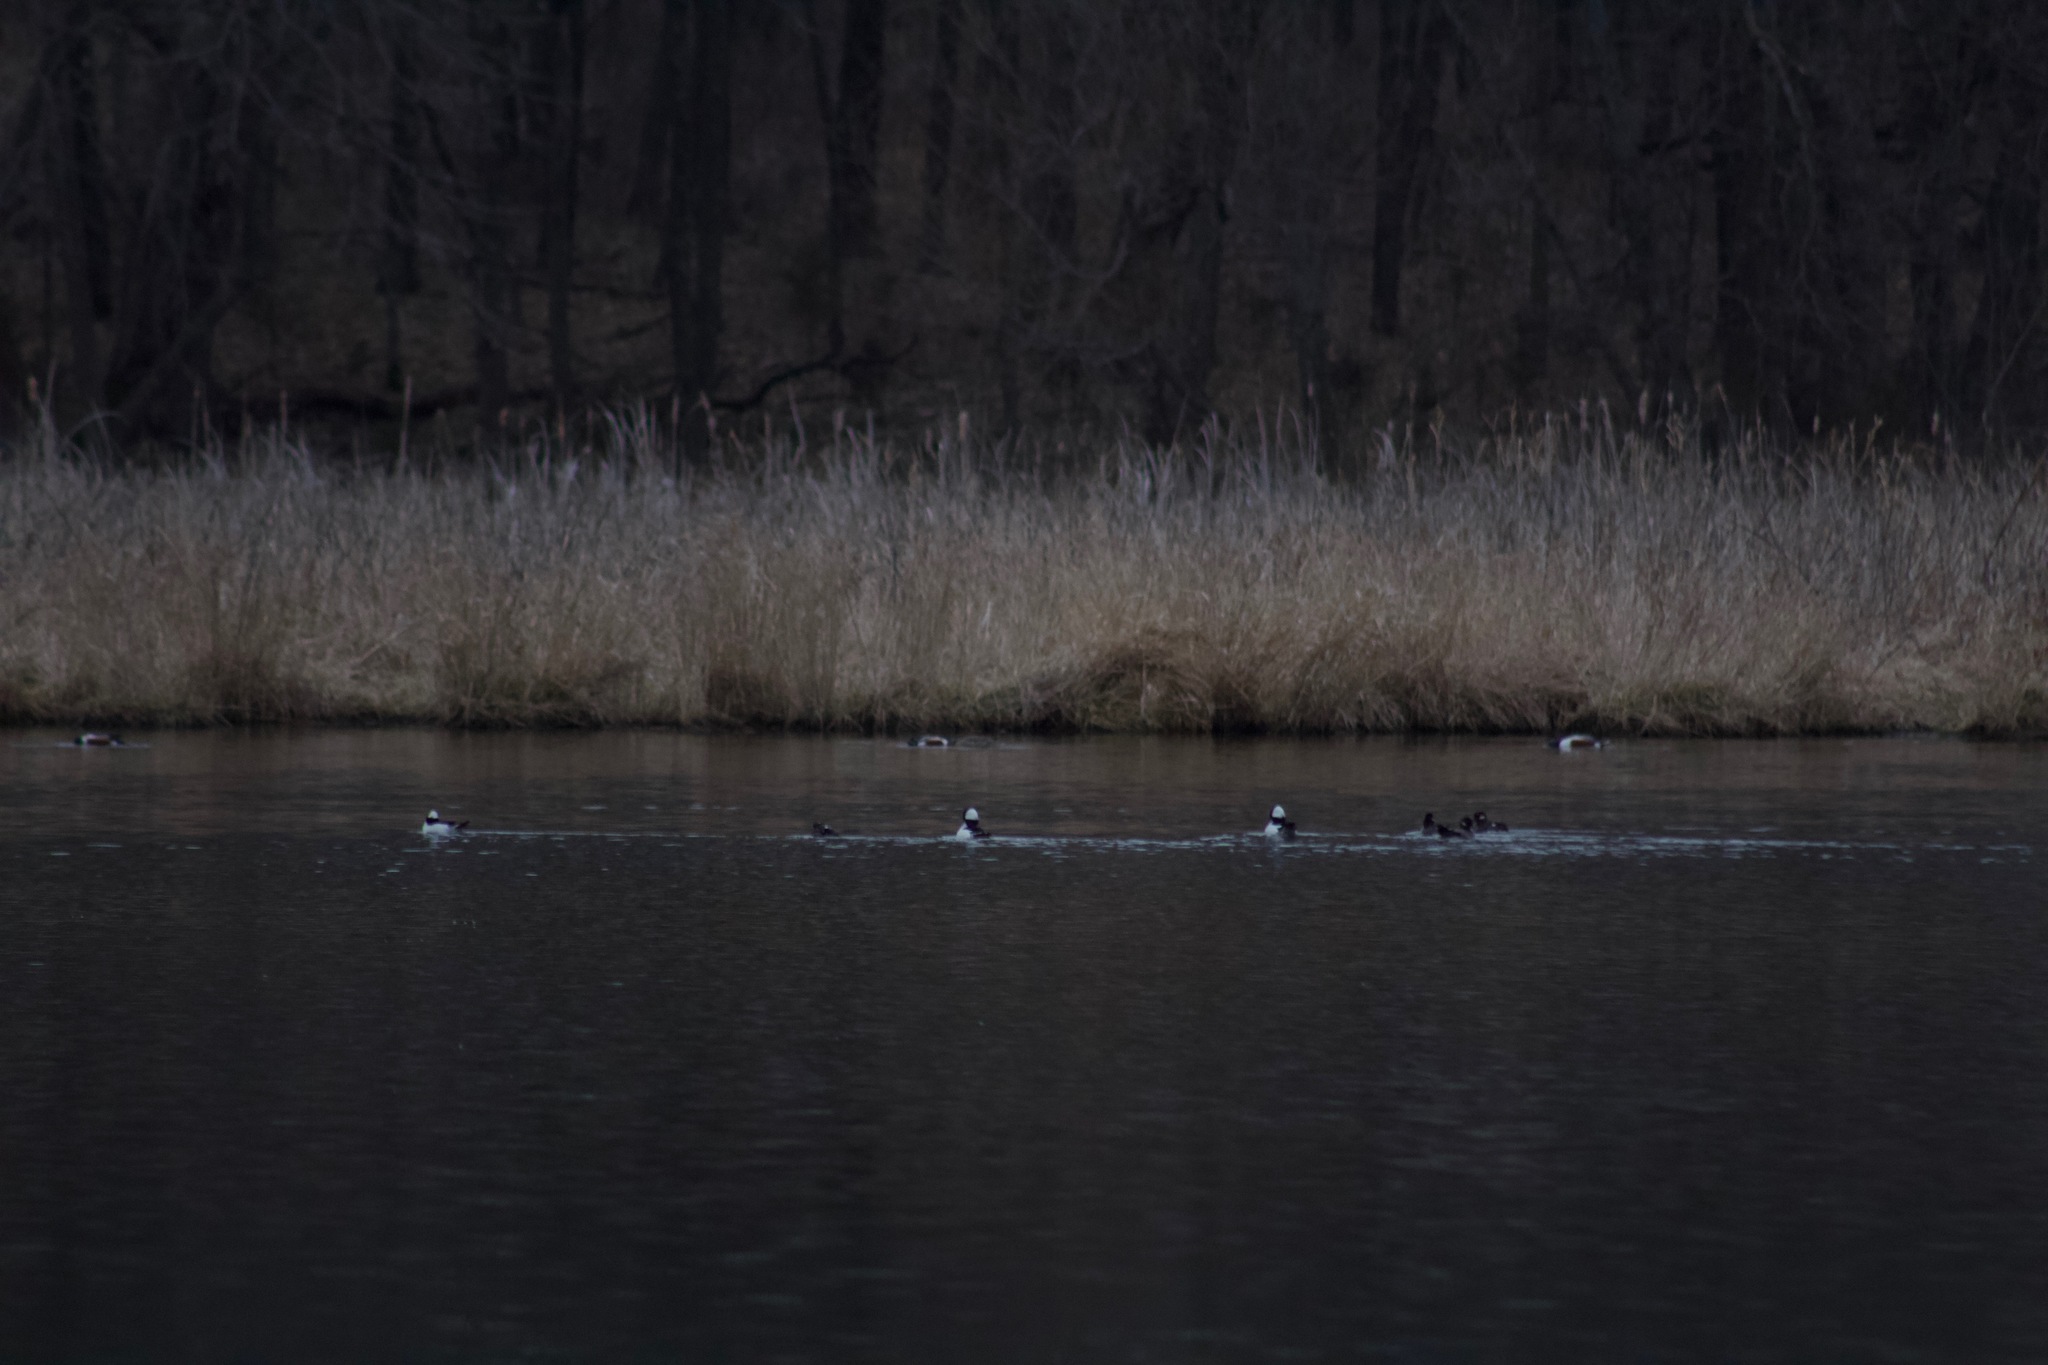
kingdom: Animalia
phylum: Chordata
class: Aves
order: Anseriformes
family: Anatidae
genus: Bucephala
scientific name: Bucephala albeola
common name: Bufflehead
